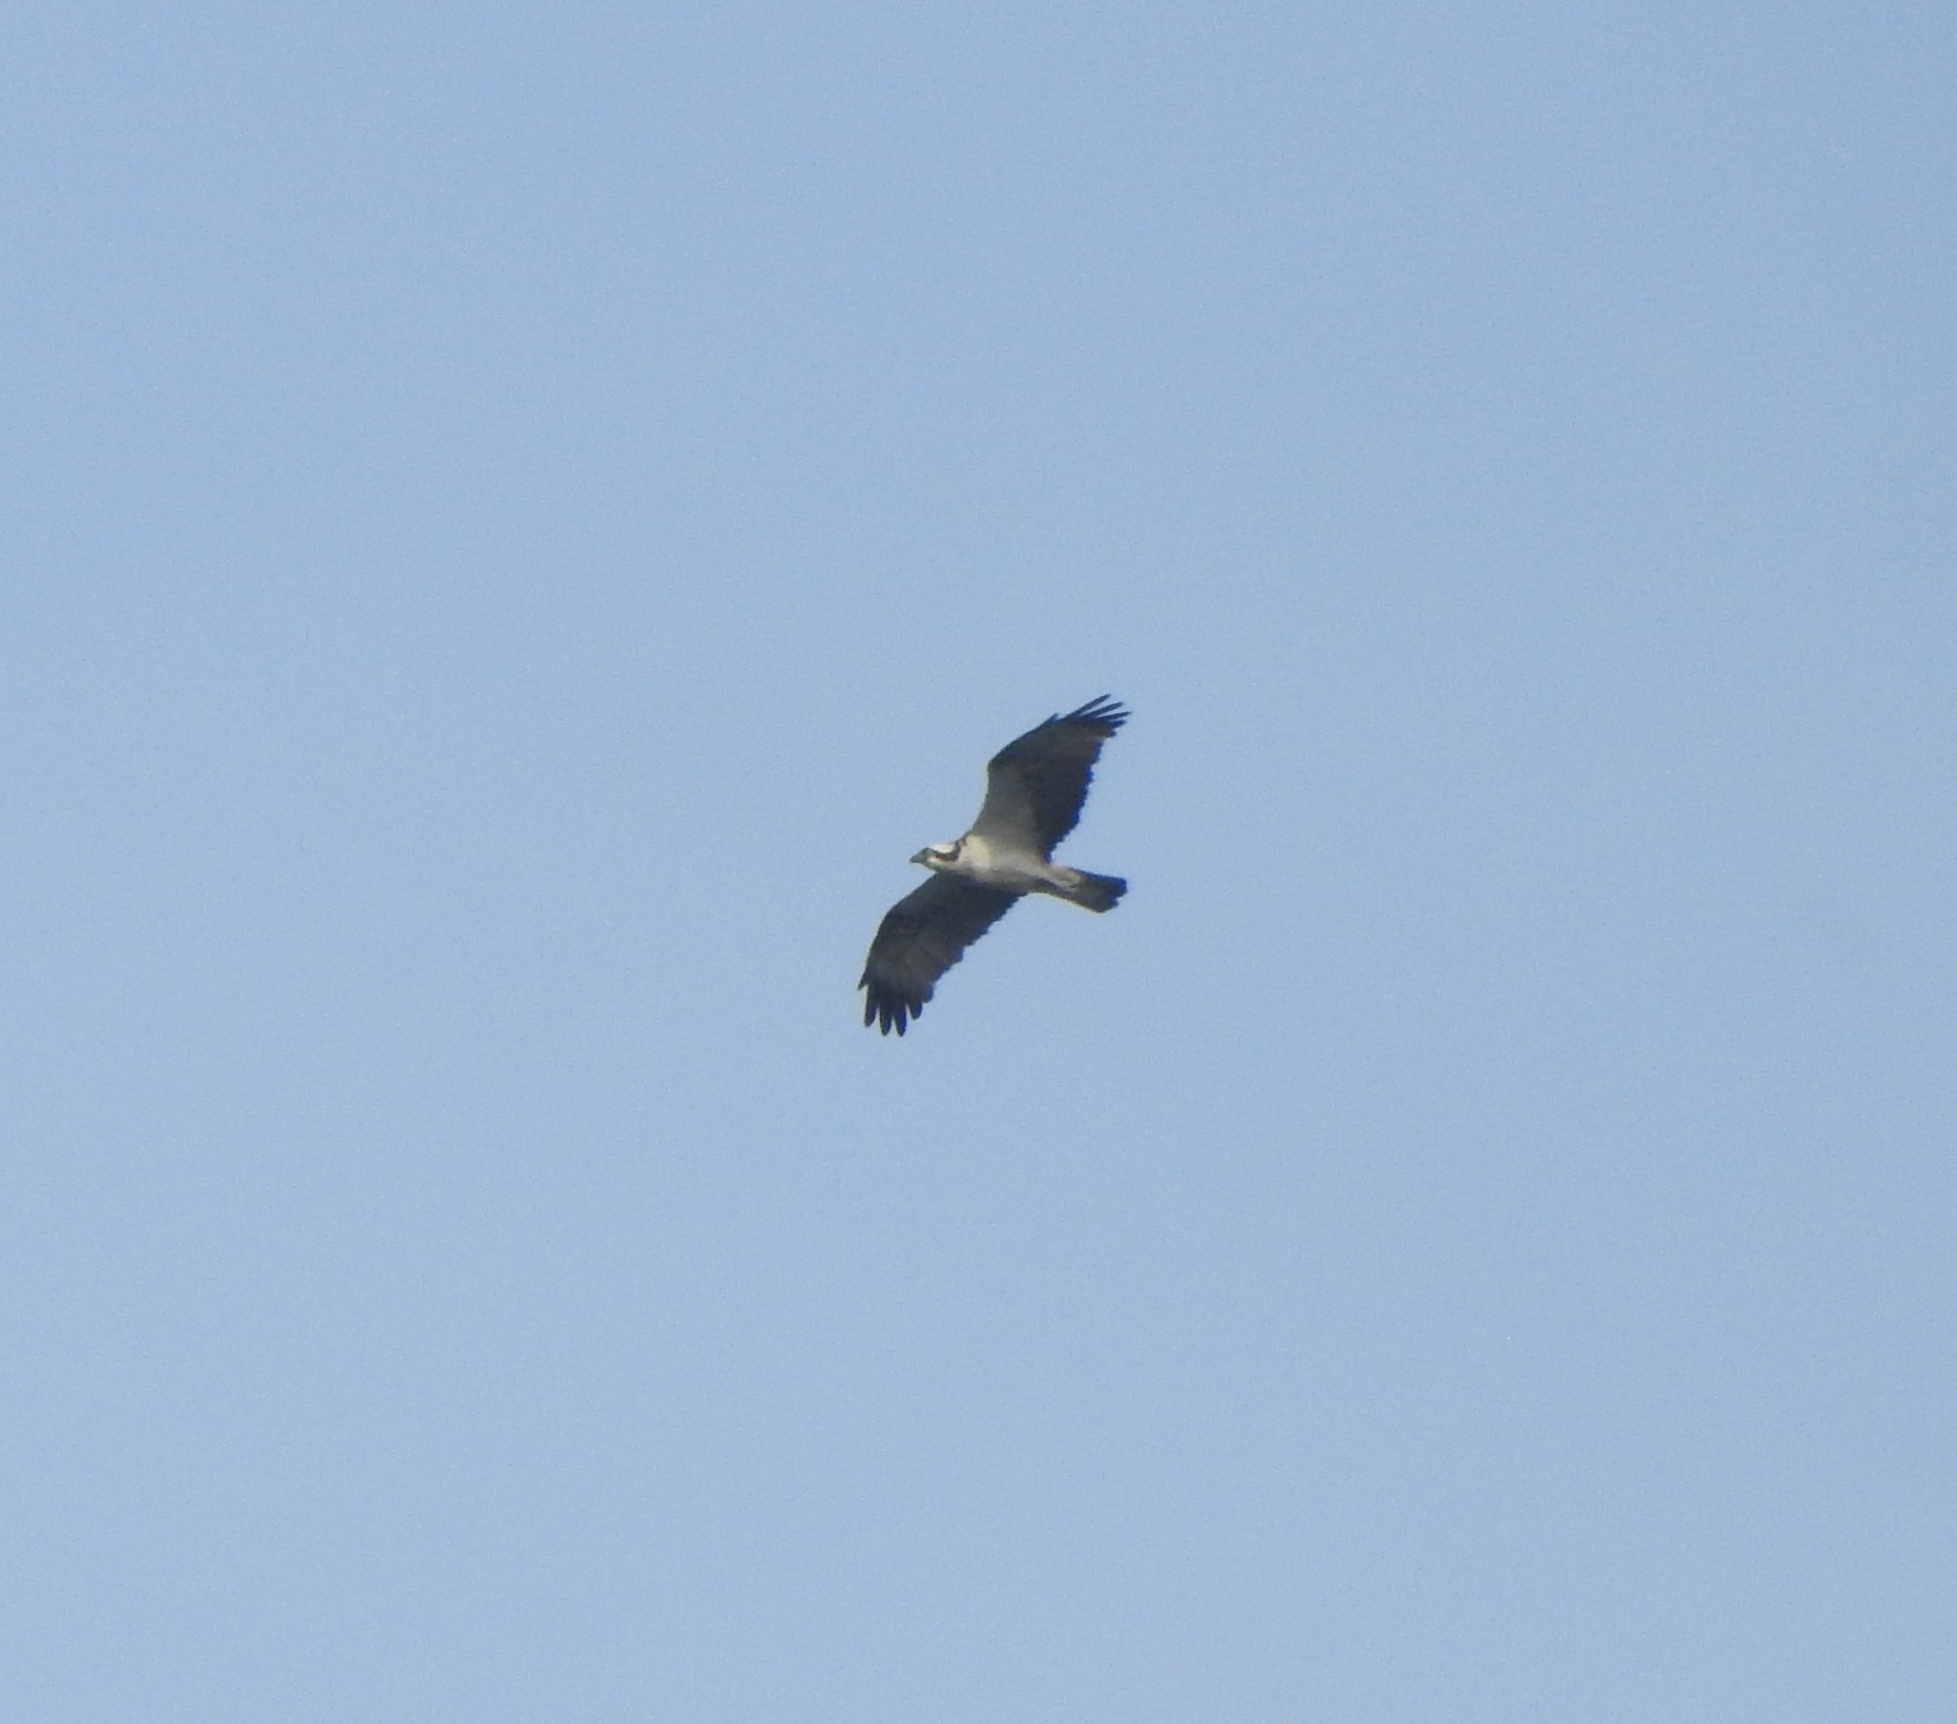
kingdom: Animalia
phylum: Chordata
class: Aves
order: Accipitriformes
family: Pandionidae
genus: Pandion
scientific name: Pandion haliaetus
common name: Osprey
